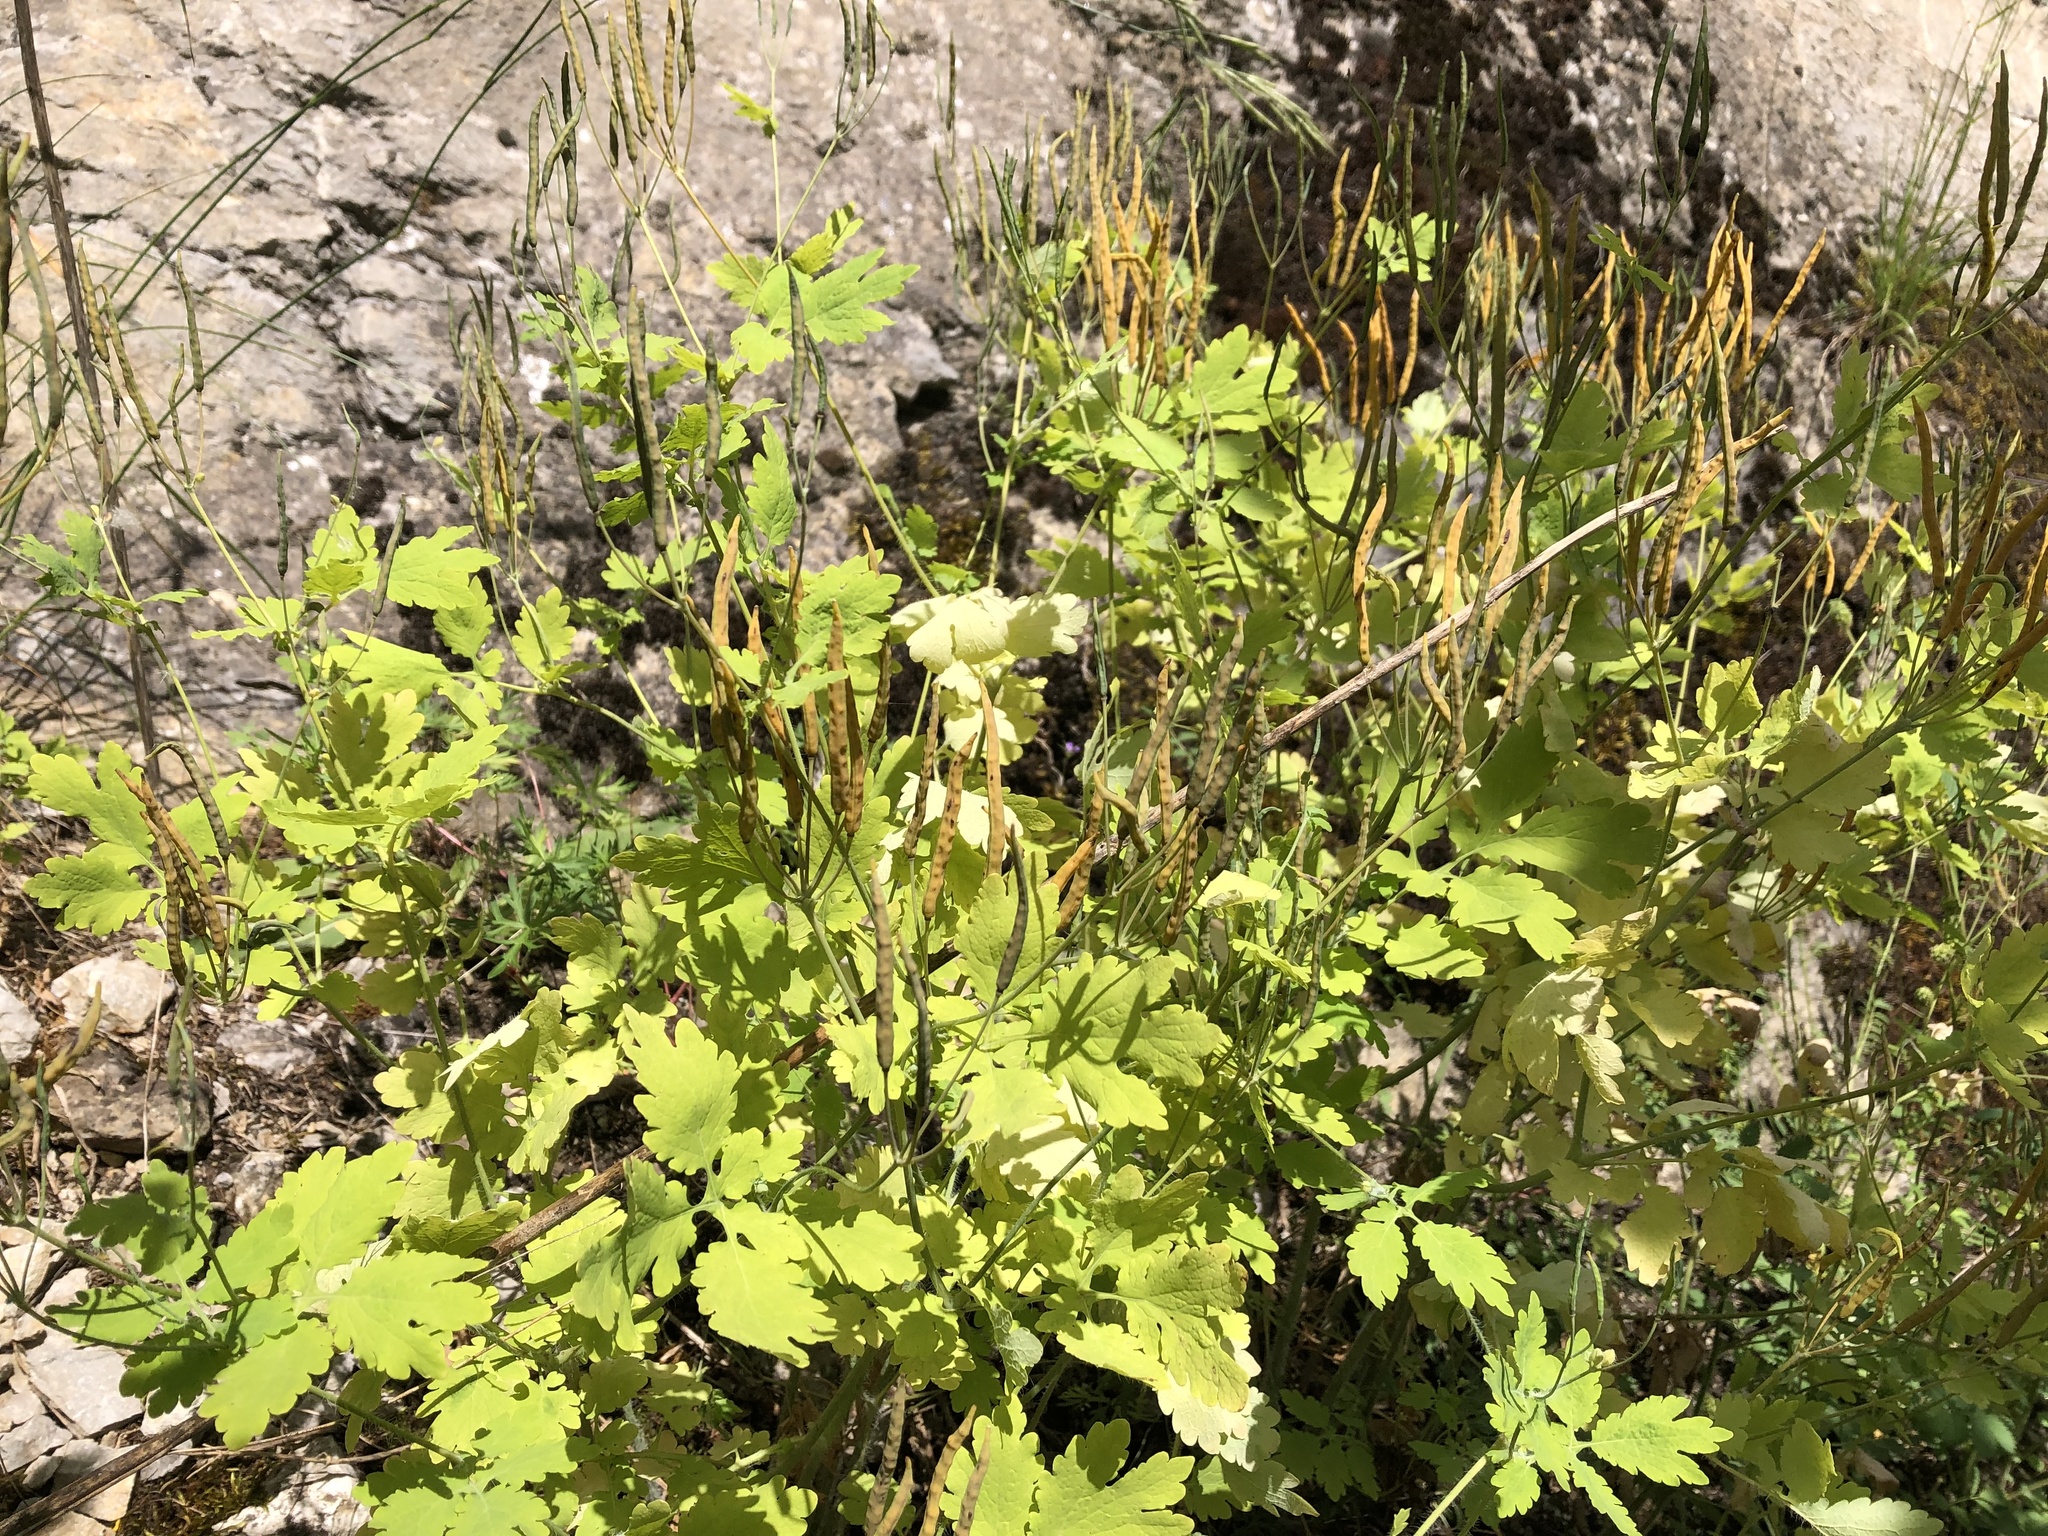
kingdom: Plantae
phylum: Tracheophyta
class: Magnoliopsida
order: Ranunculales
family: Papaveraceae
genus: Chelidonium
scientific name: Chelidonium majus
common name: Greater celandine
